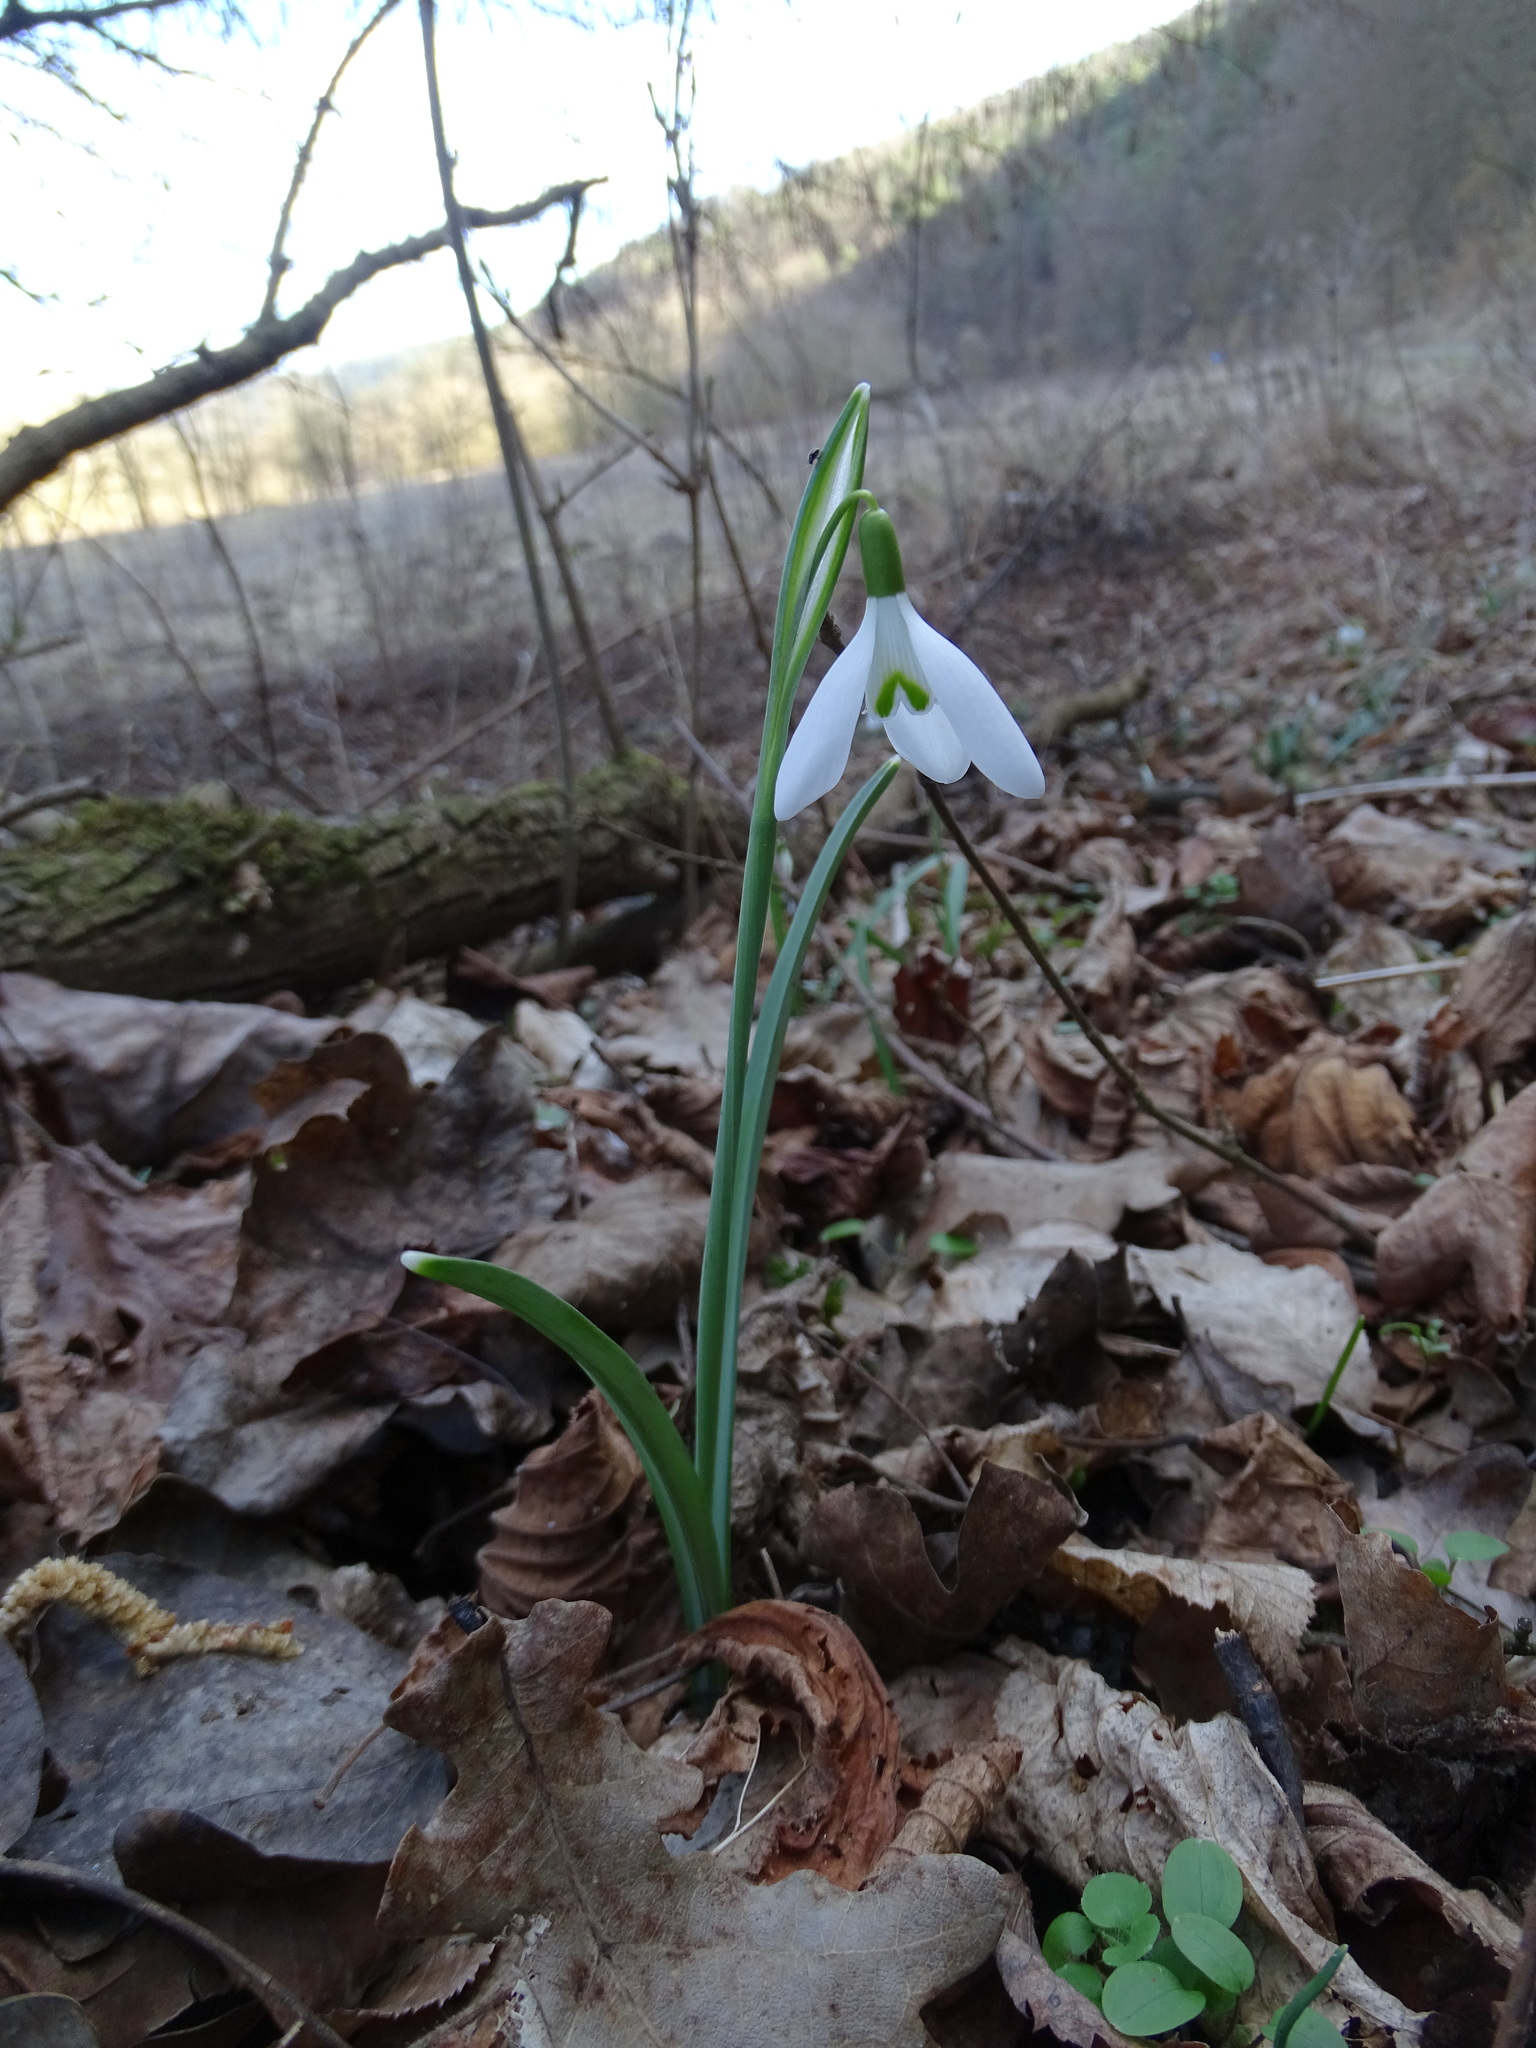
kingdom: Plantae
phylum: Tracheophyta
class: Liliopsida
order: Asparagales
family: Amaryllidaceae
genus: Galanthus
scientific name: Galanthus nivalis
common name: Snowdrop
